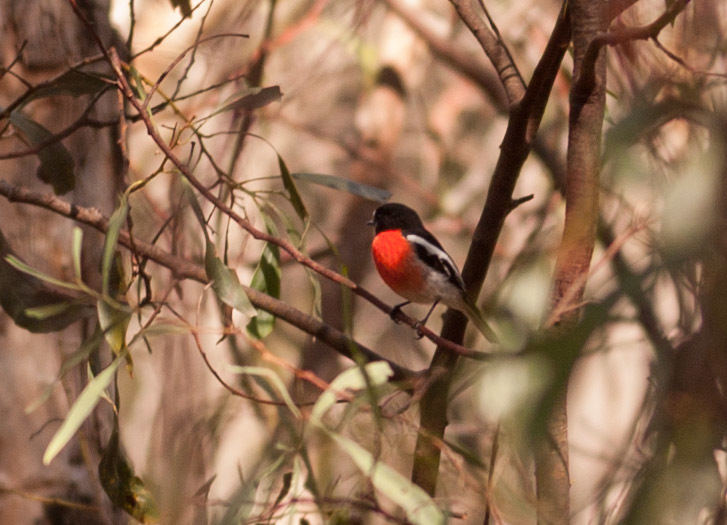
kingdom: Animalia
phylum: Chordata
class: Aves
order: Passeriformes
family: Petroicidae
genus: Petroica
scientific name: Petroica boodang
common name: Scarlet robin
